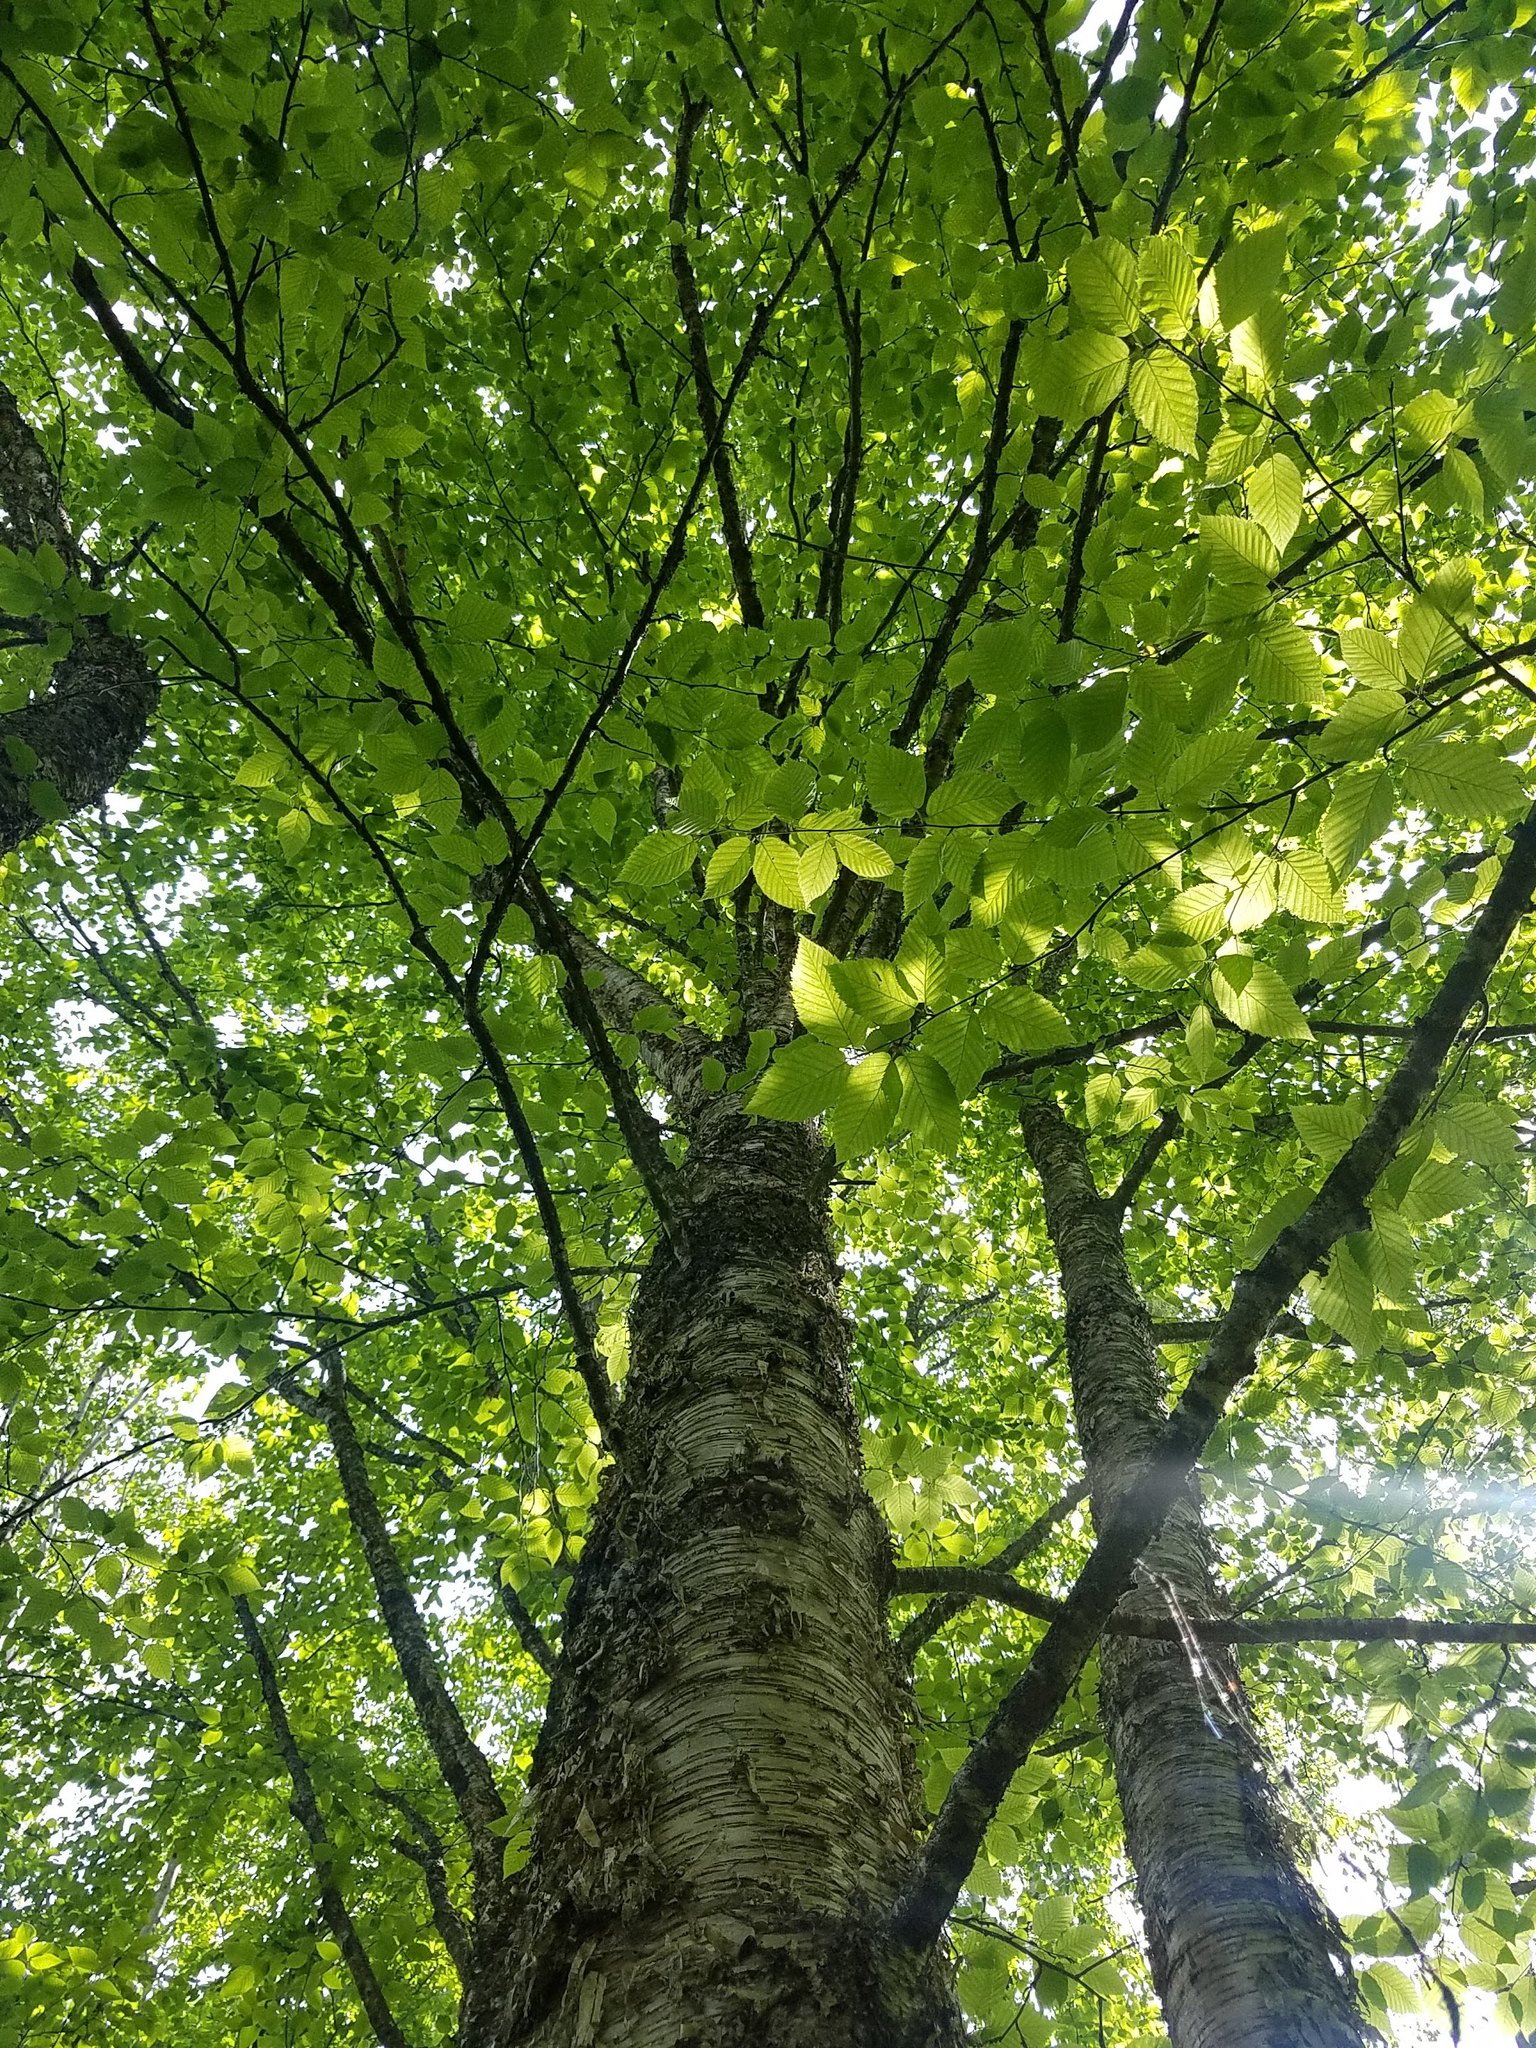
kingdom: Plantae
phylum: Tracheophyta
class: Magnoliopsida
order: Fagales
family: Betulaceae
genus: Betula
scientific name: Betula alleghaniensis
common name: Yellow birch
